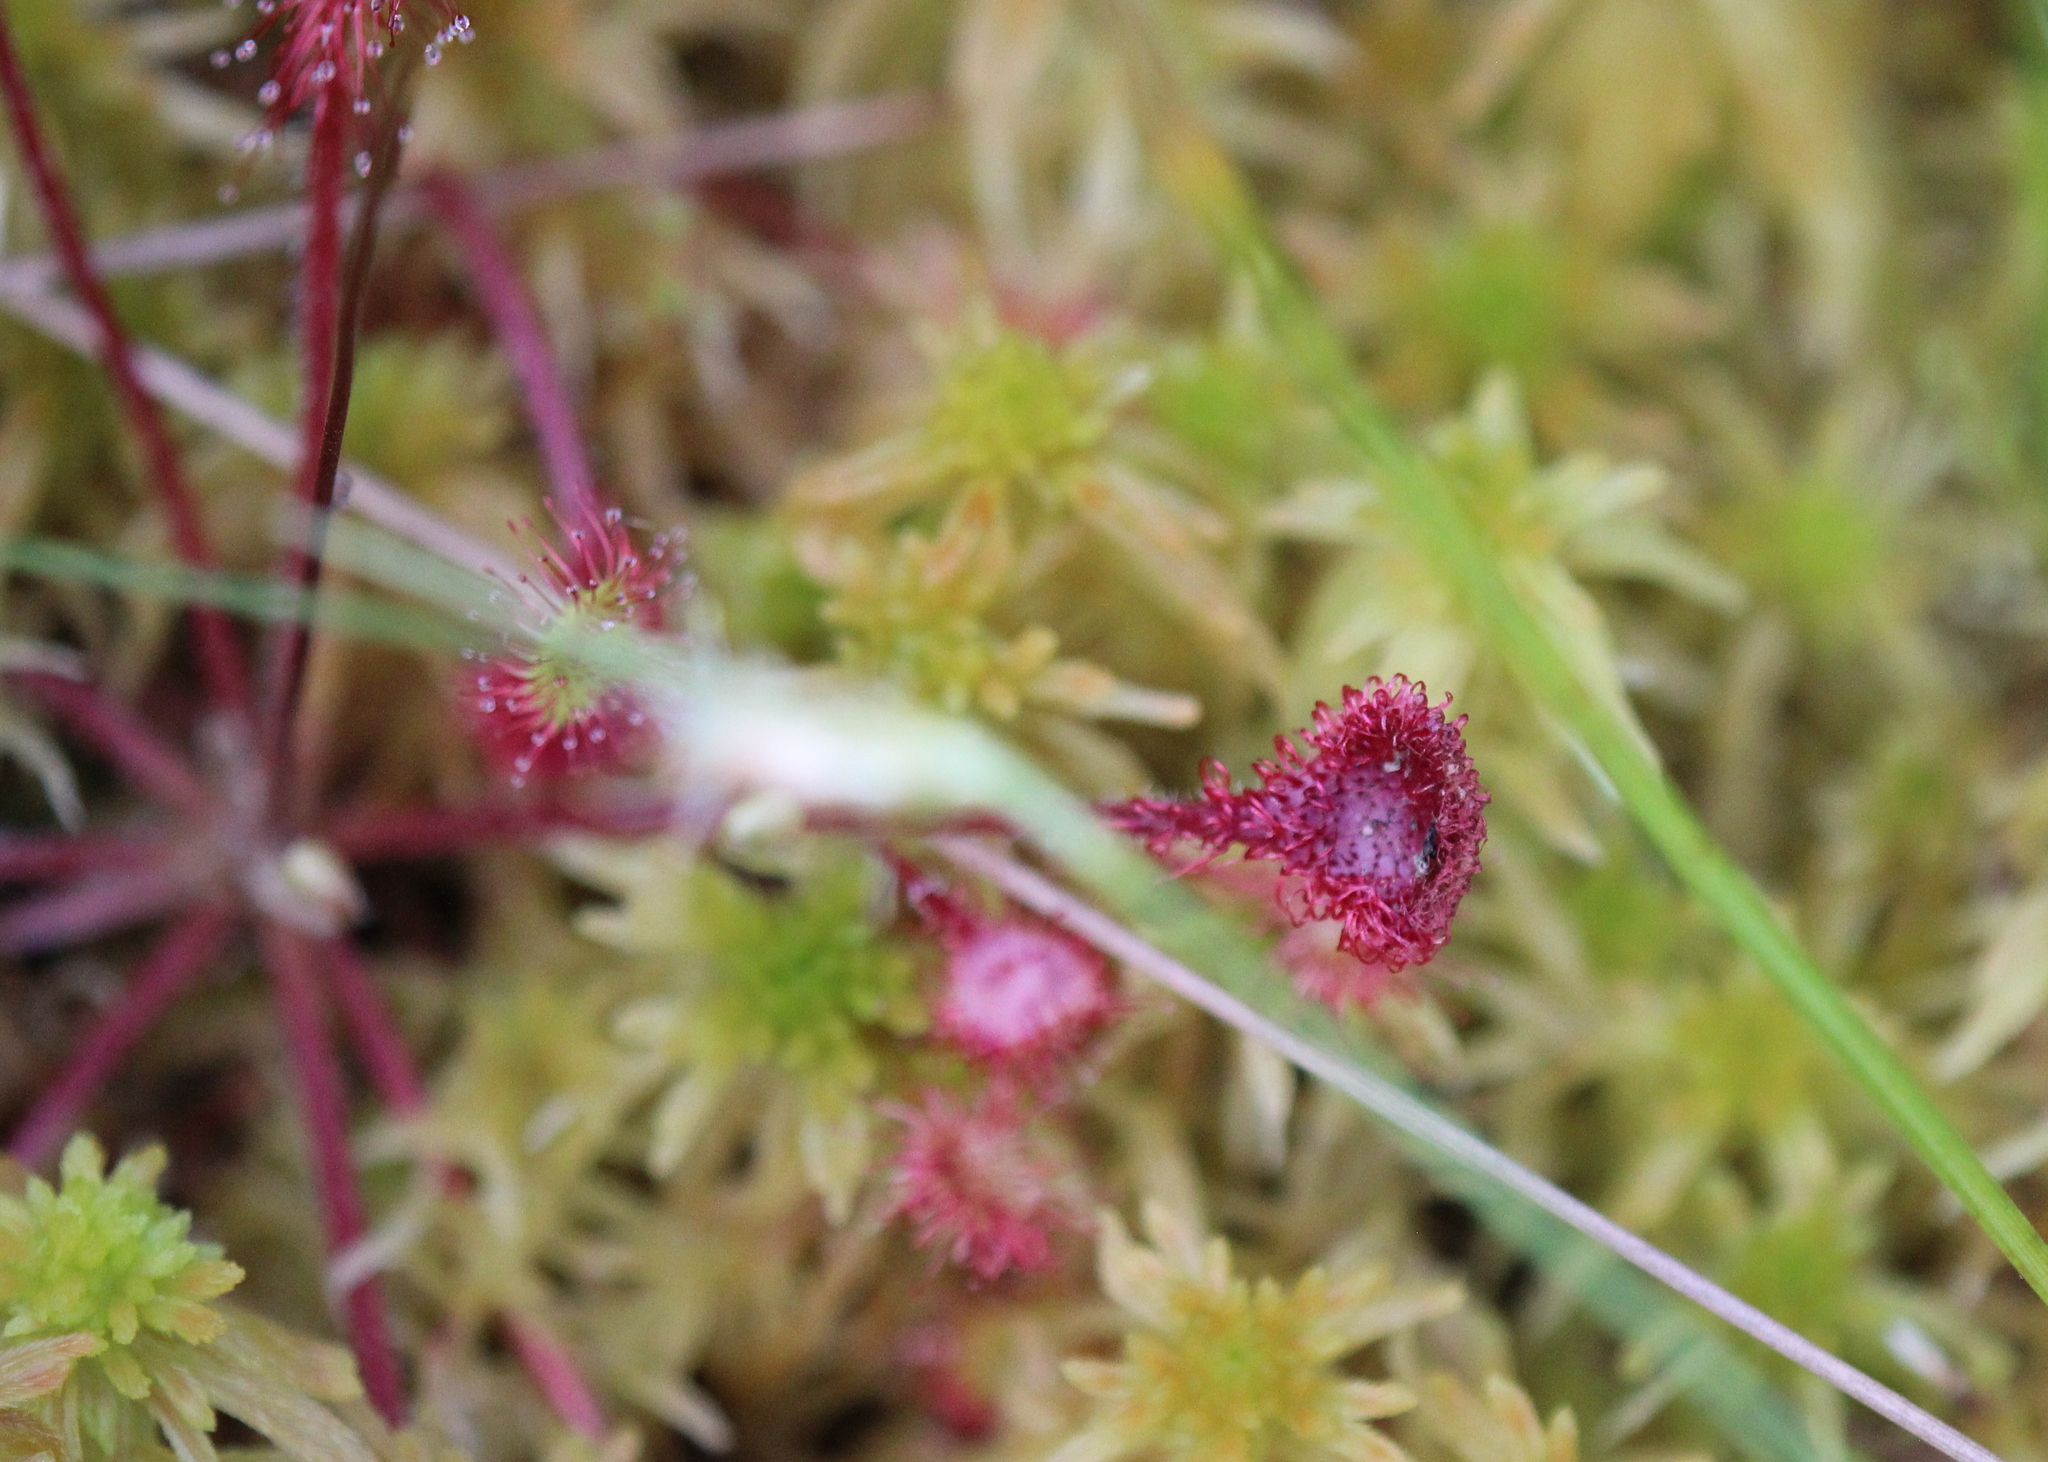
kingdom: Plantae
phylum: Tracheophyta
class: Magnoliopsida
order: Caryophyllales
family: Droseraceae
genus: Drosera
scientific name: Drosera rotundifolia
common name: Round-leaved sundew
